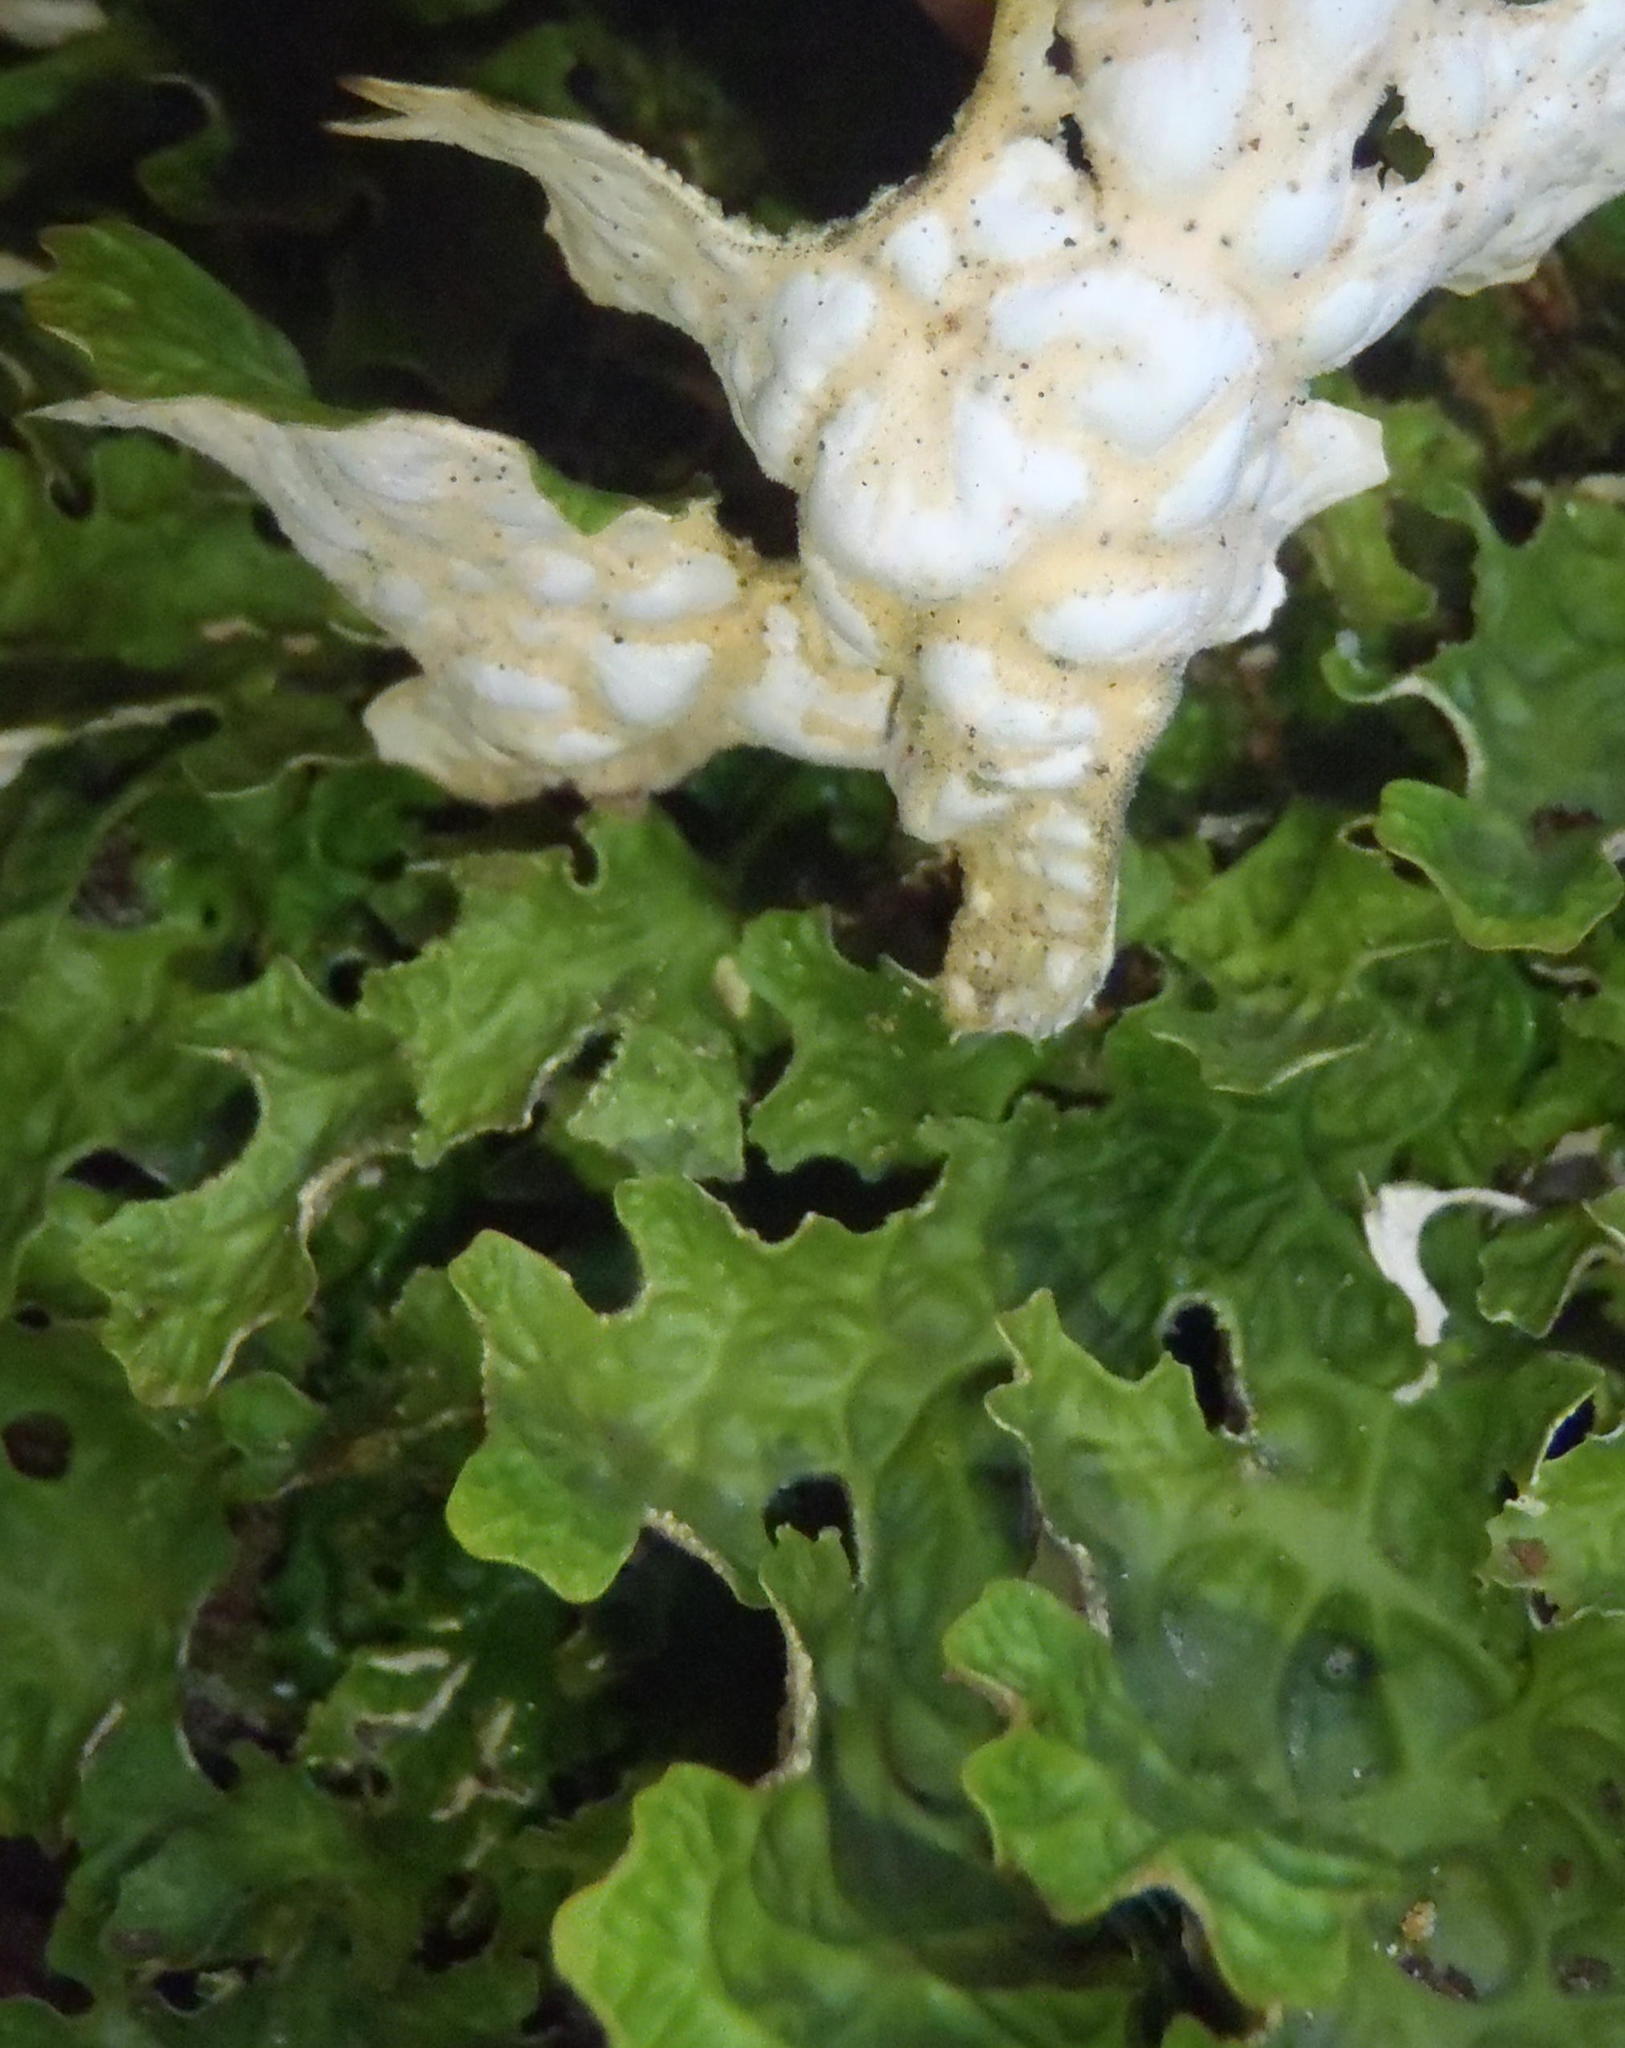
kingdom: Fungi
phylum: Ascomycota
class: Lecanoromycetes
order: Peltigerales
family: Lobariaceae
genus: Lobaria
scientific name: Lobaria pulmonaria
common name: Lungwort
